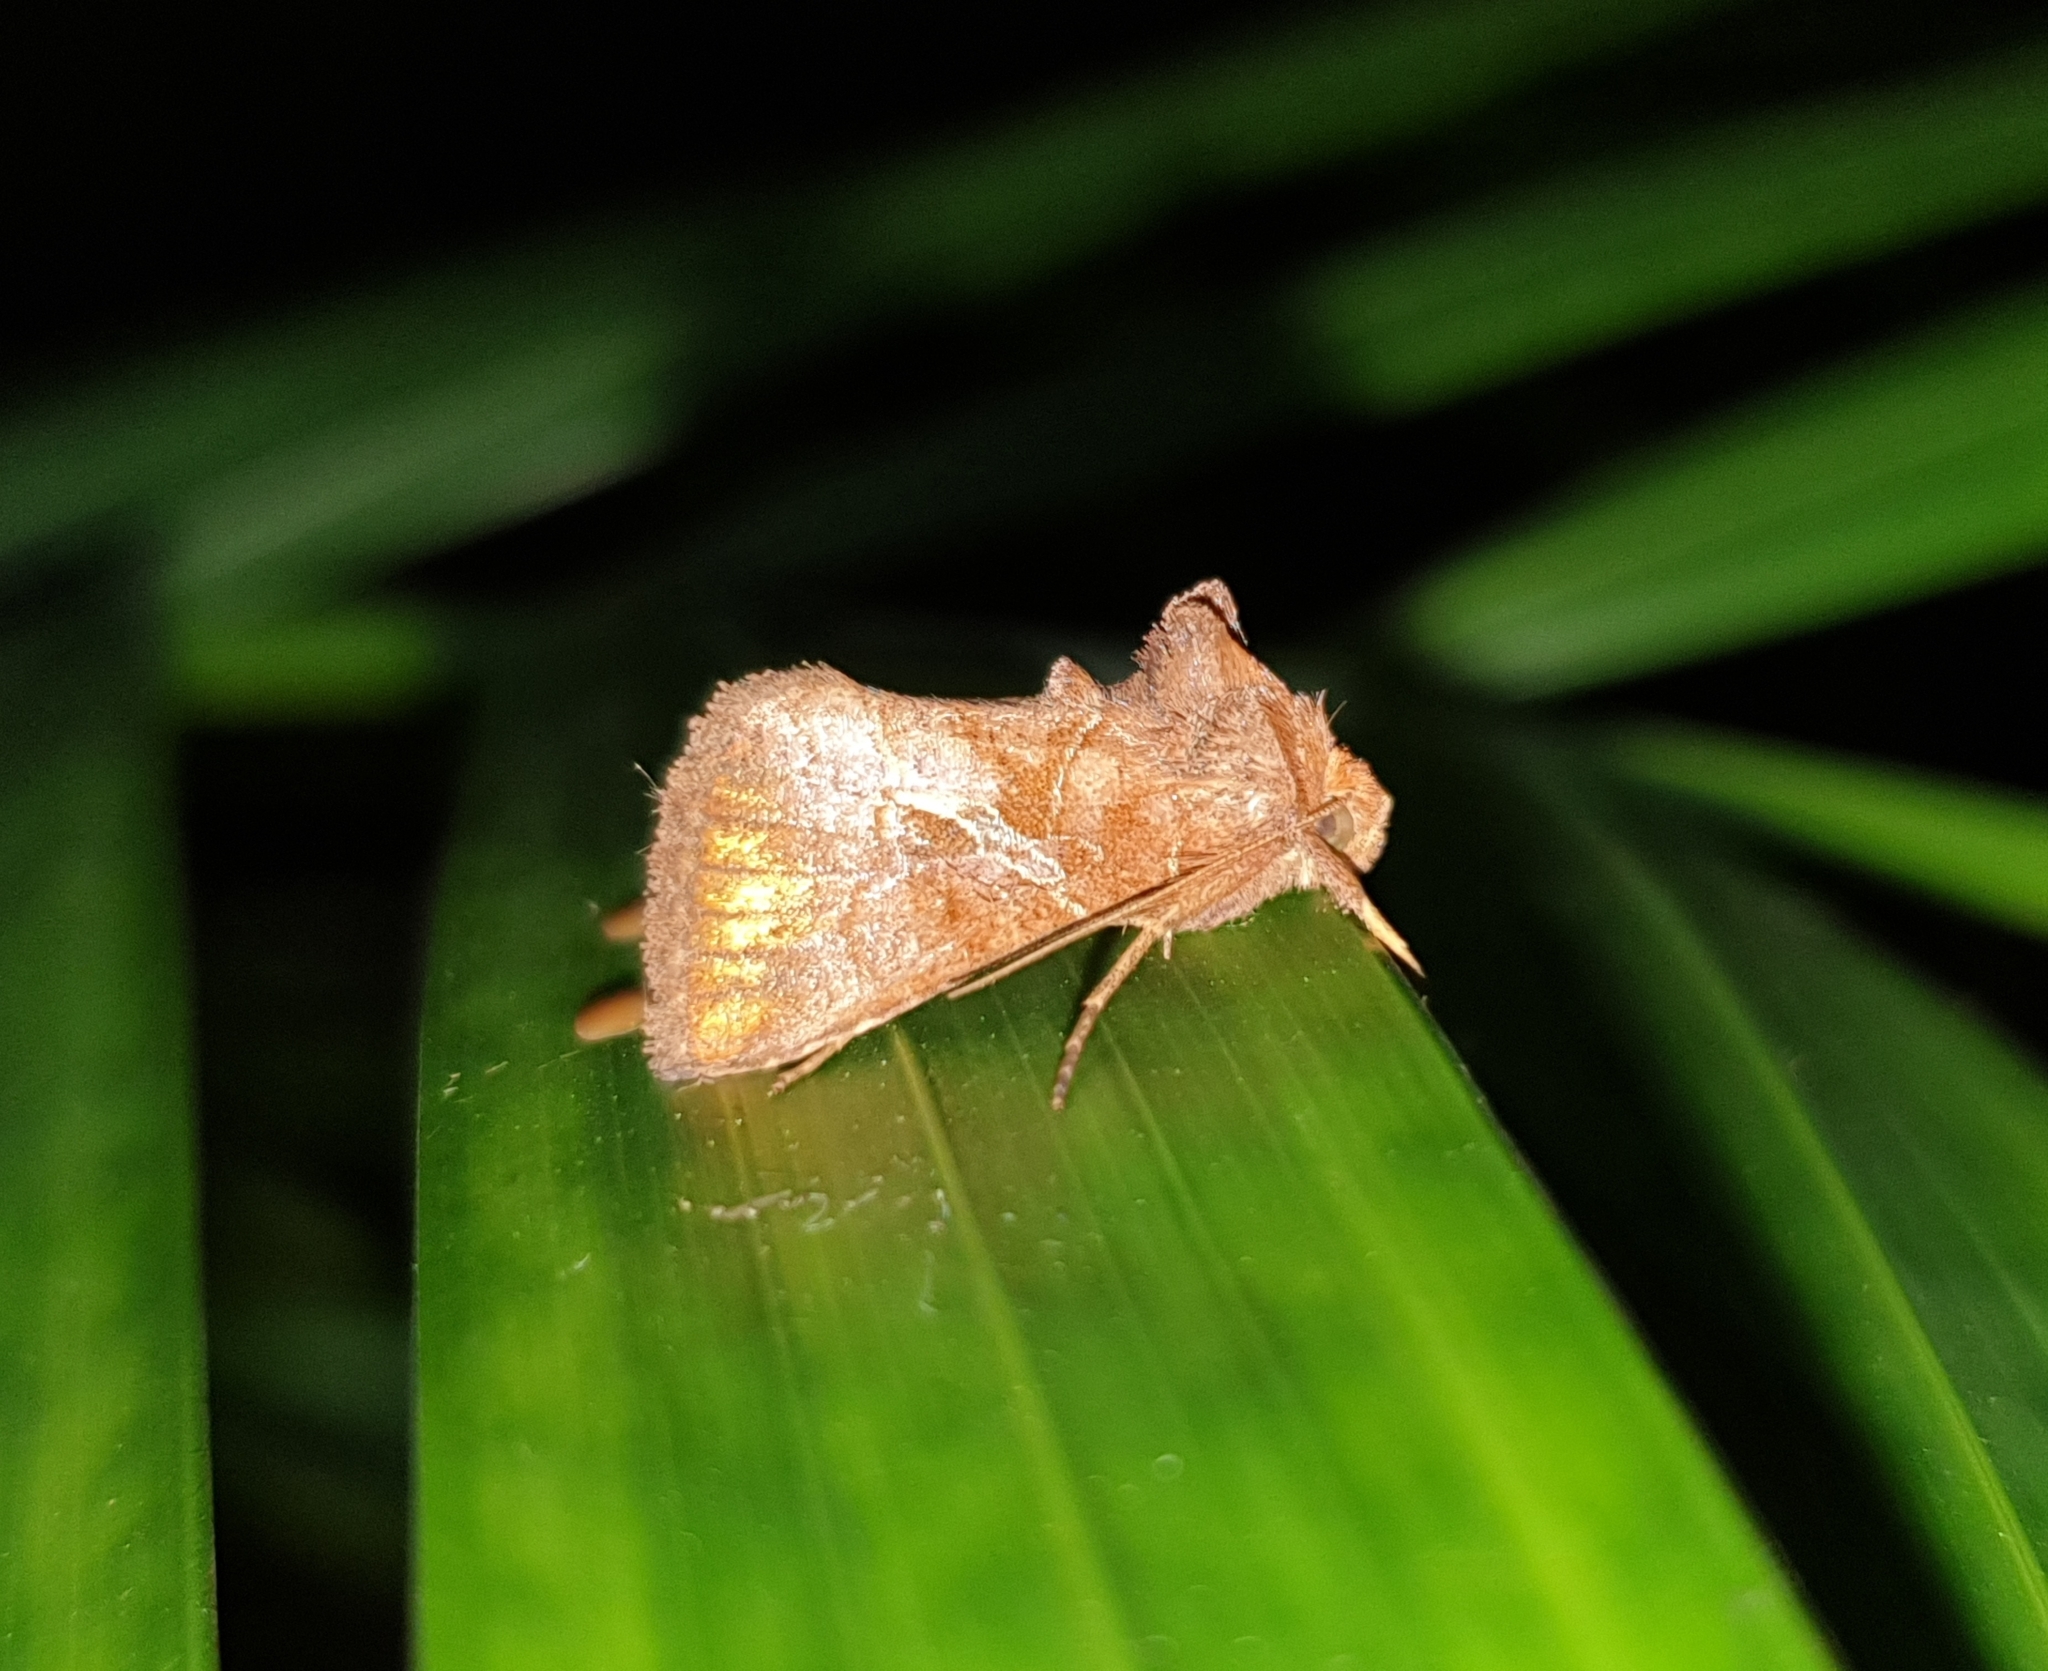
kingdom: Animalia
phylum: Arthropoda
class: Insecta
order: Lepidoptera
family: Noctuidae
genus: Zonoplusia
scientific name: Zonoplusia ochreata
